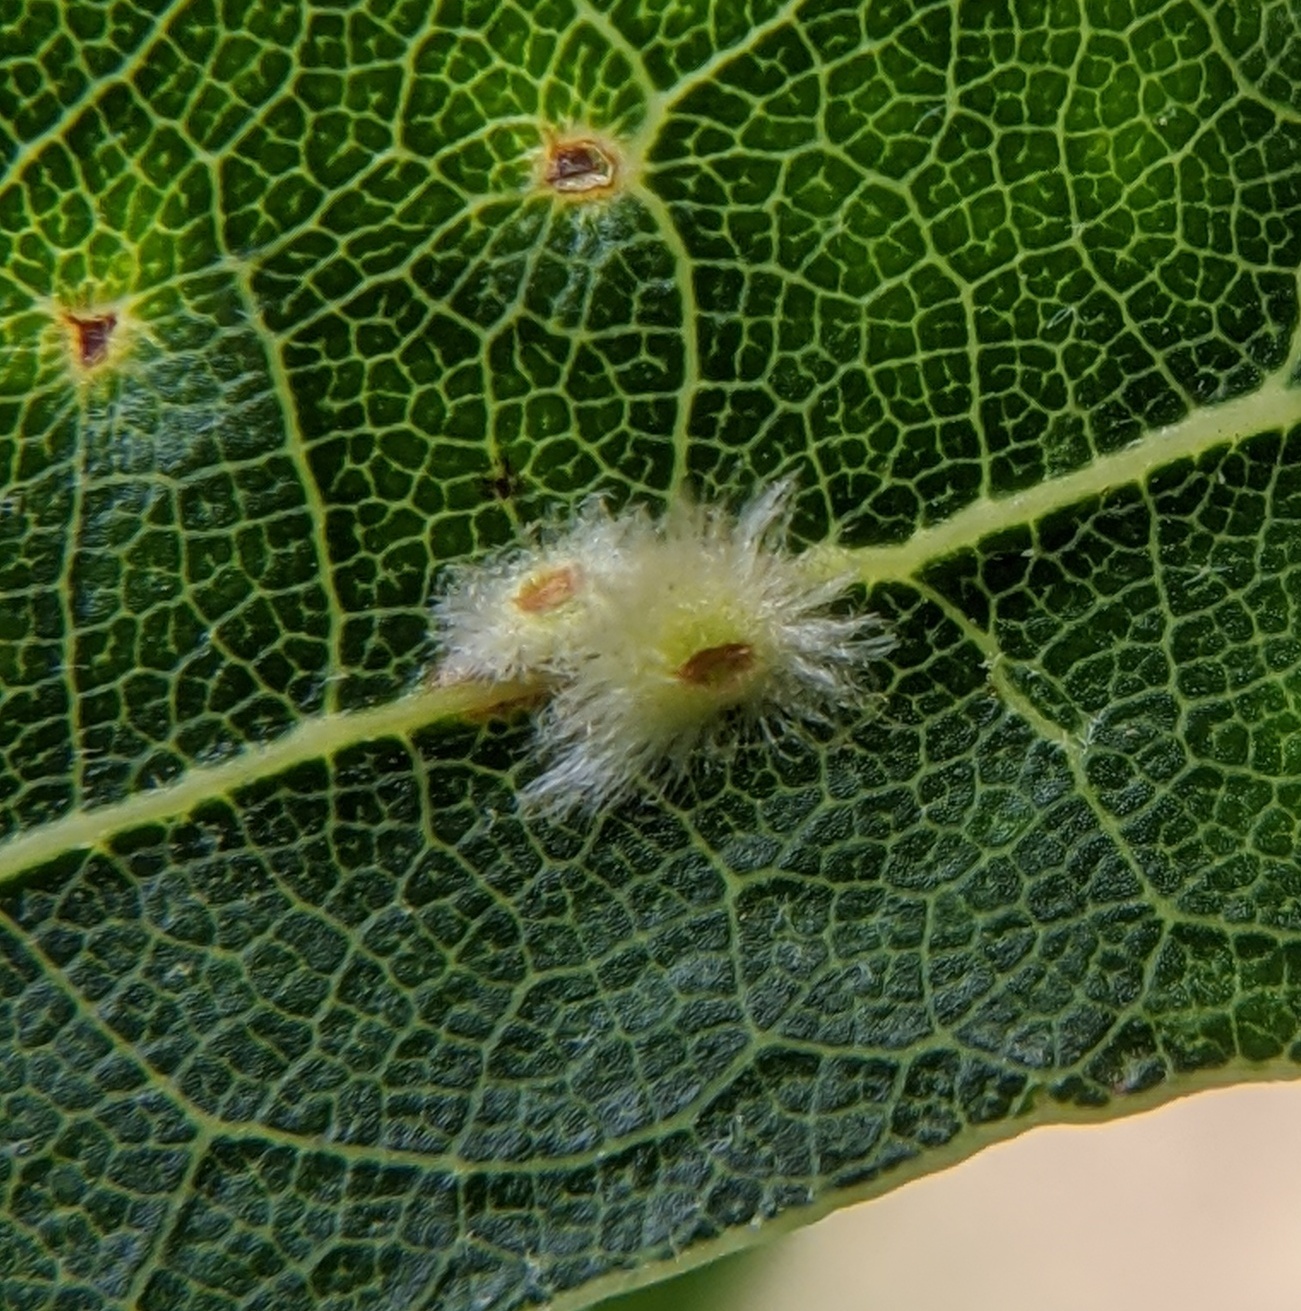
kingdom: Animalia
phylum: Arthropoda
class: Insecta
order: Hymenoptera
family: Cynipidae
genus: Callirhytis
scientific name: Callirhytis
